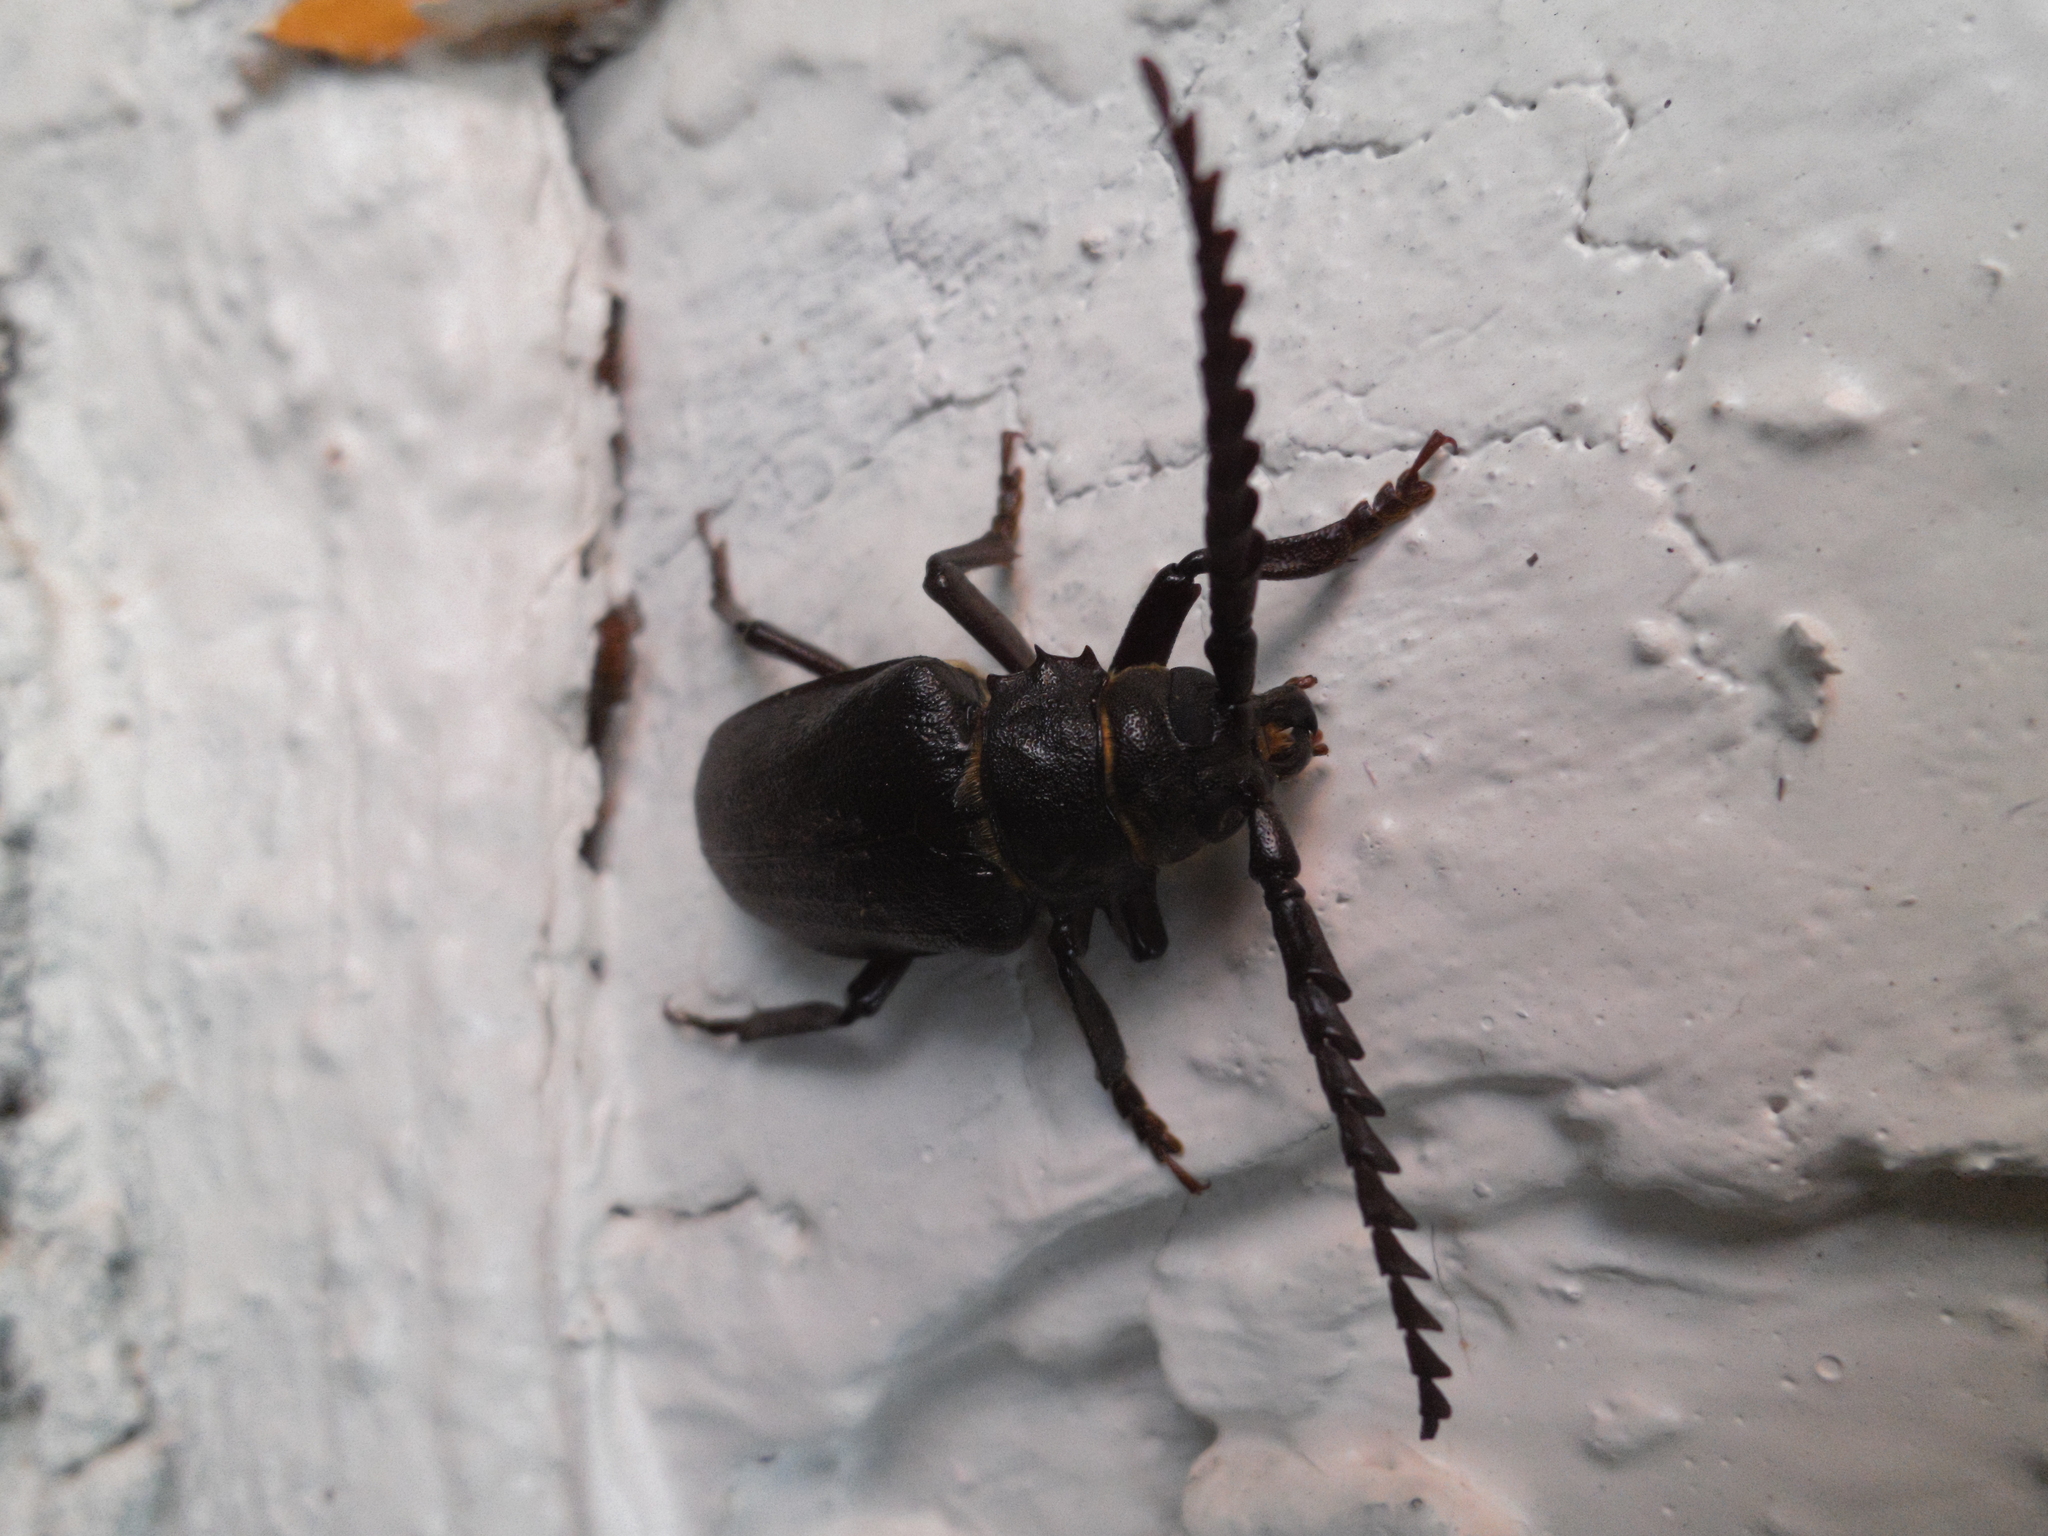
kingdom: Animalia
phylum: Arthropoda
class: Insecta
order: Coleoptera
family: Cerambycidae
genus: Prionus
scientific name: Prionus coriarius
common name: Tanner beetle
